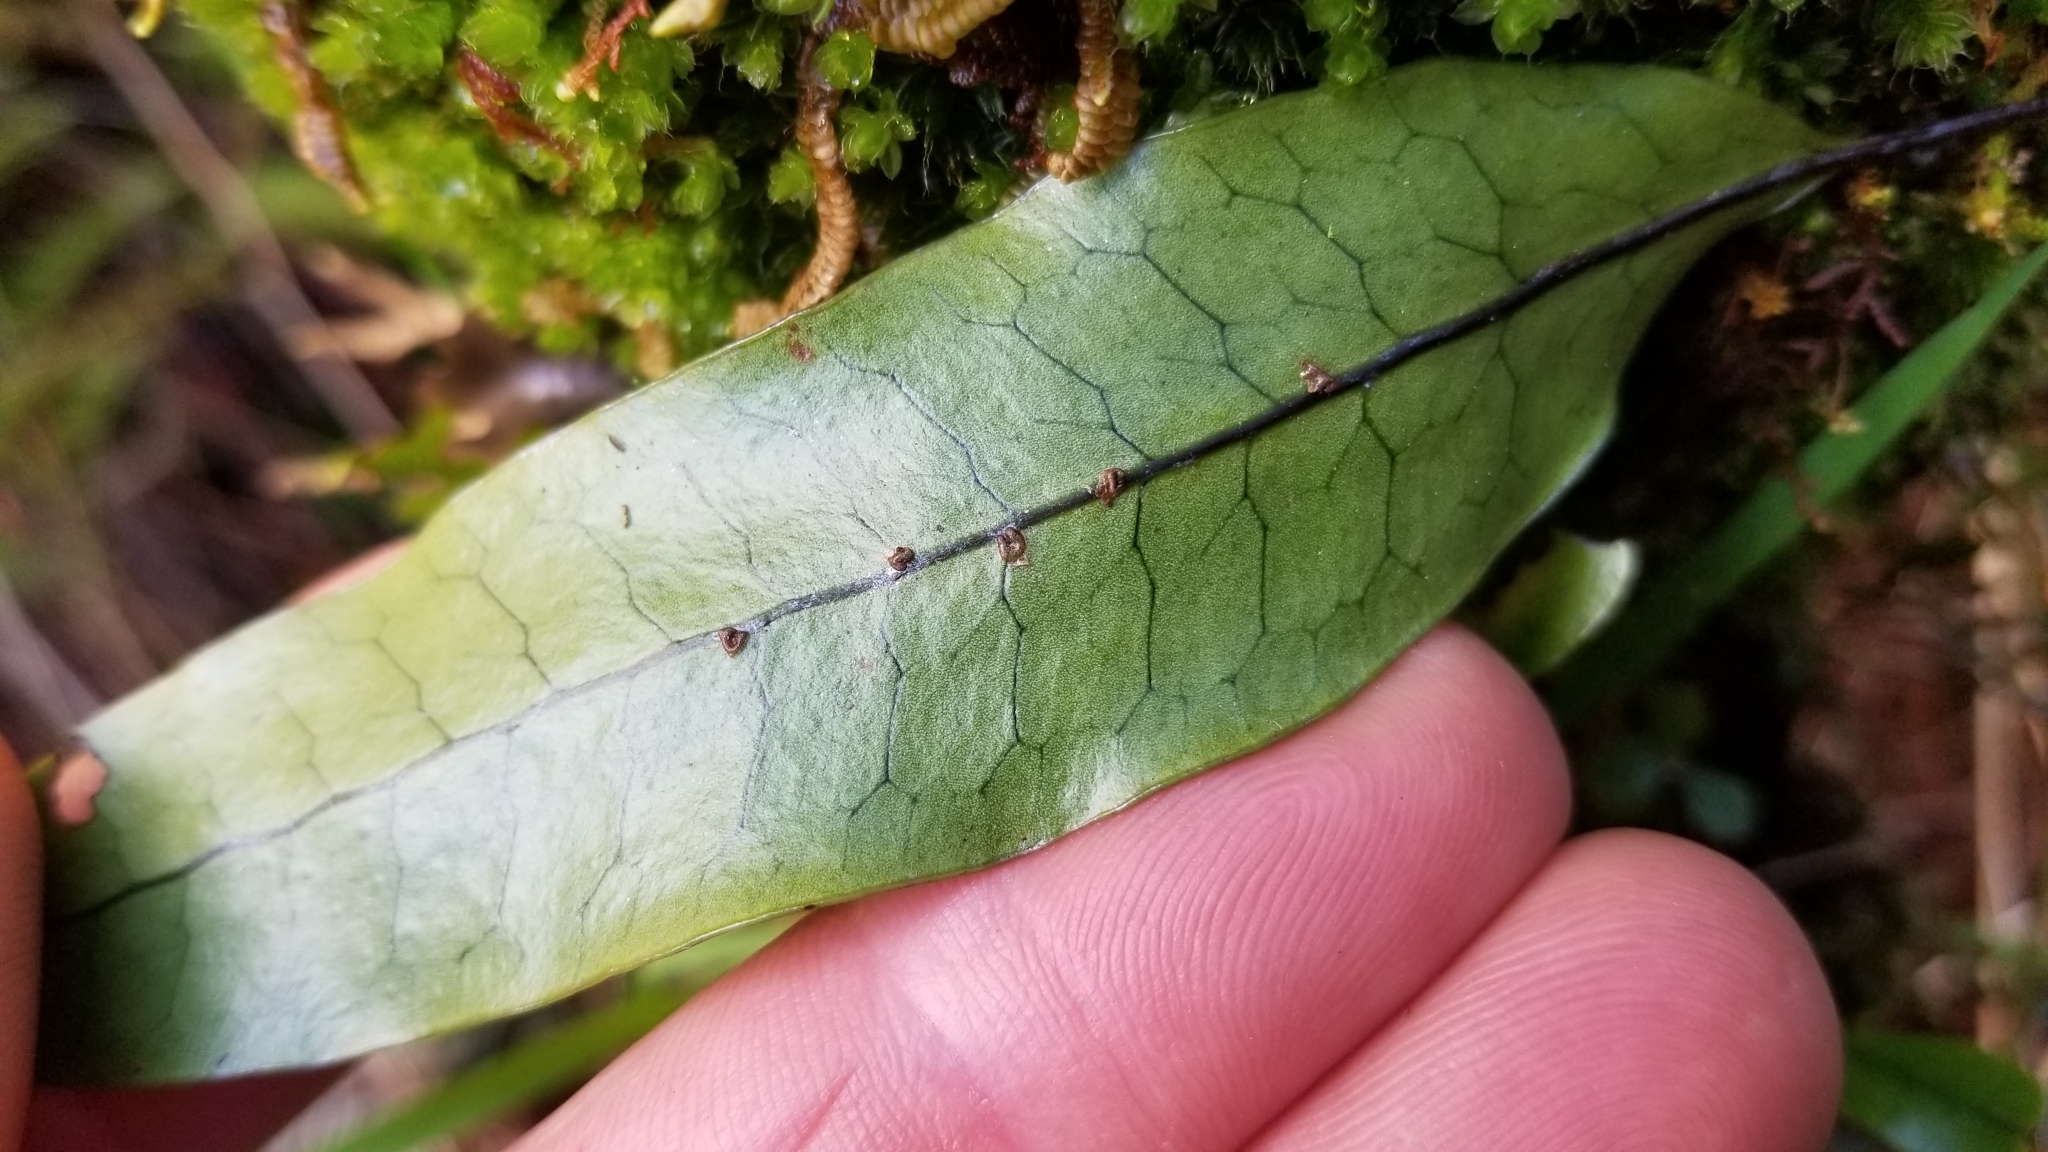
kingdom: Plantae
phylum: Tracheophyta
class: Polypodiopsida
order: Polypodiales
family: Polypodiaceae
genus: Lecanopteris
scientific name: Lecanopteris pustulata
